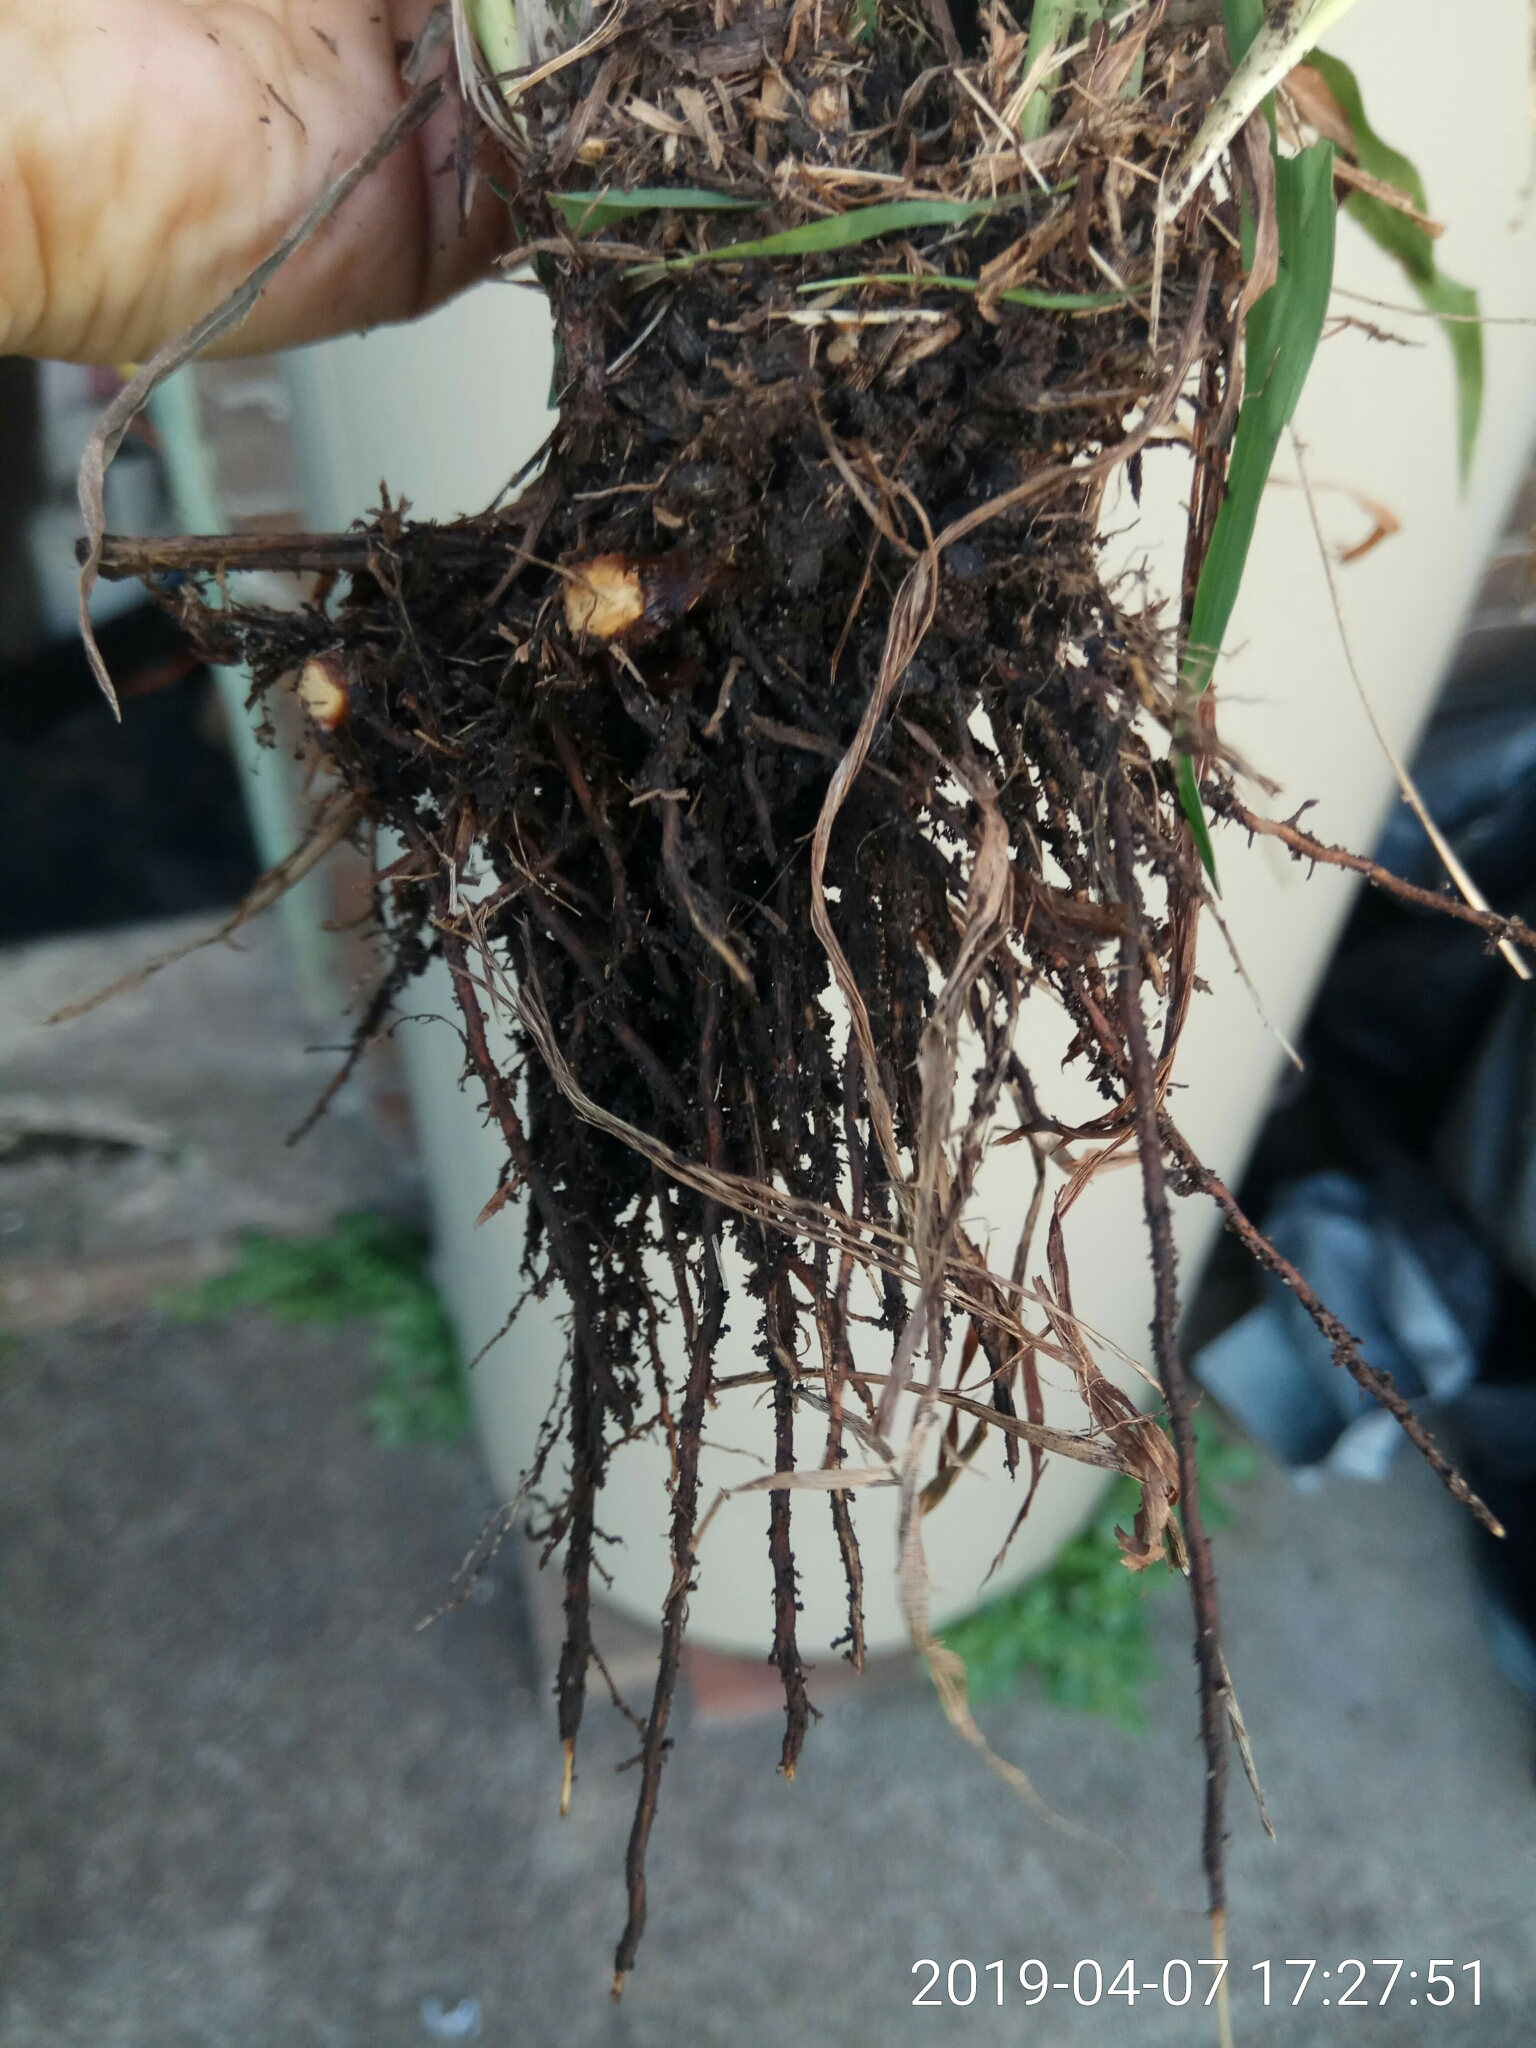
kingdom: Plantae
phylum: Tracheophyta
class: Liliopsida
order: Poales
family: Poaceae
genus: Paspalum
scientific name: Paspalum dilatatum
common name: Dallisgrass
